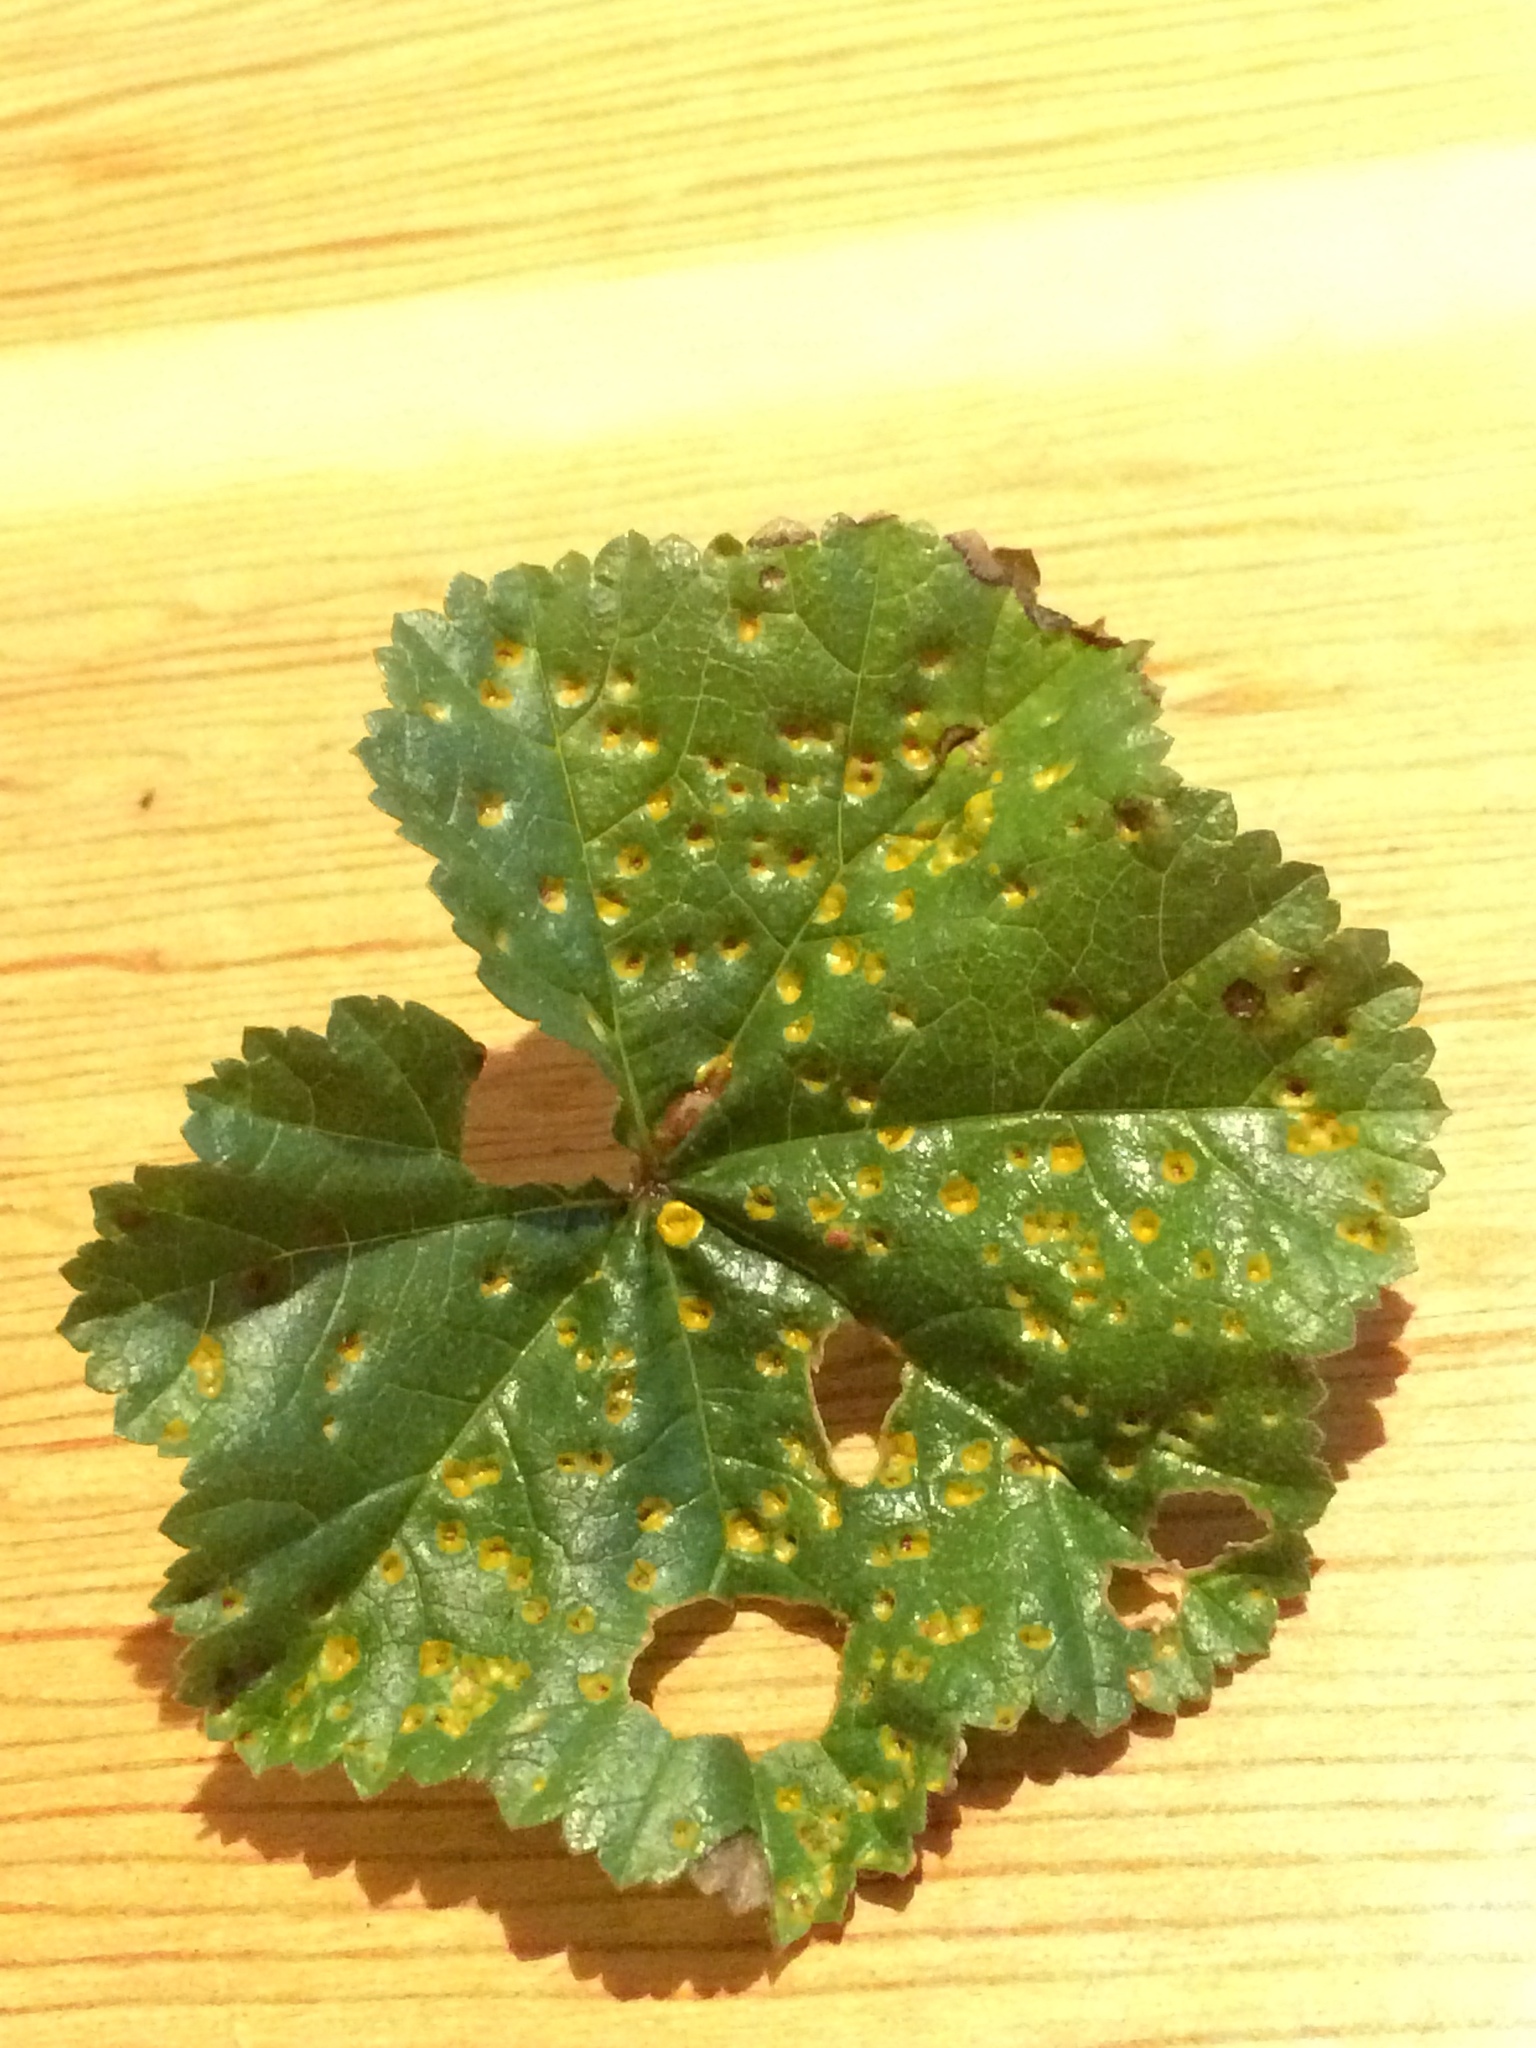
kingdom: Fungi
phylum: Basidiomycota
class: Pucciniomycetes
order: Pucciniales
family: Pucciniaceae
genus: Puccinia
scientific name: Puccinia malvacearum
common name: Hollyhock rust
